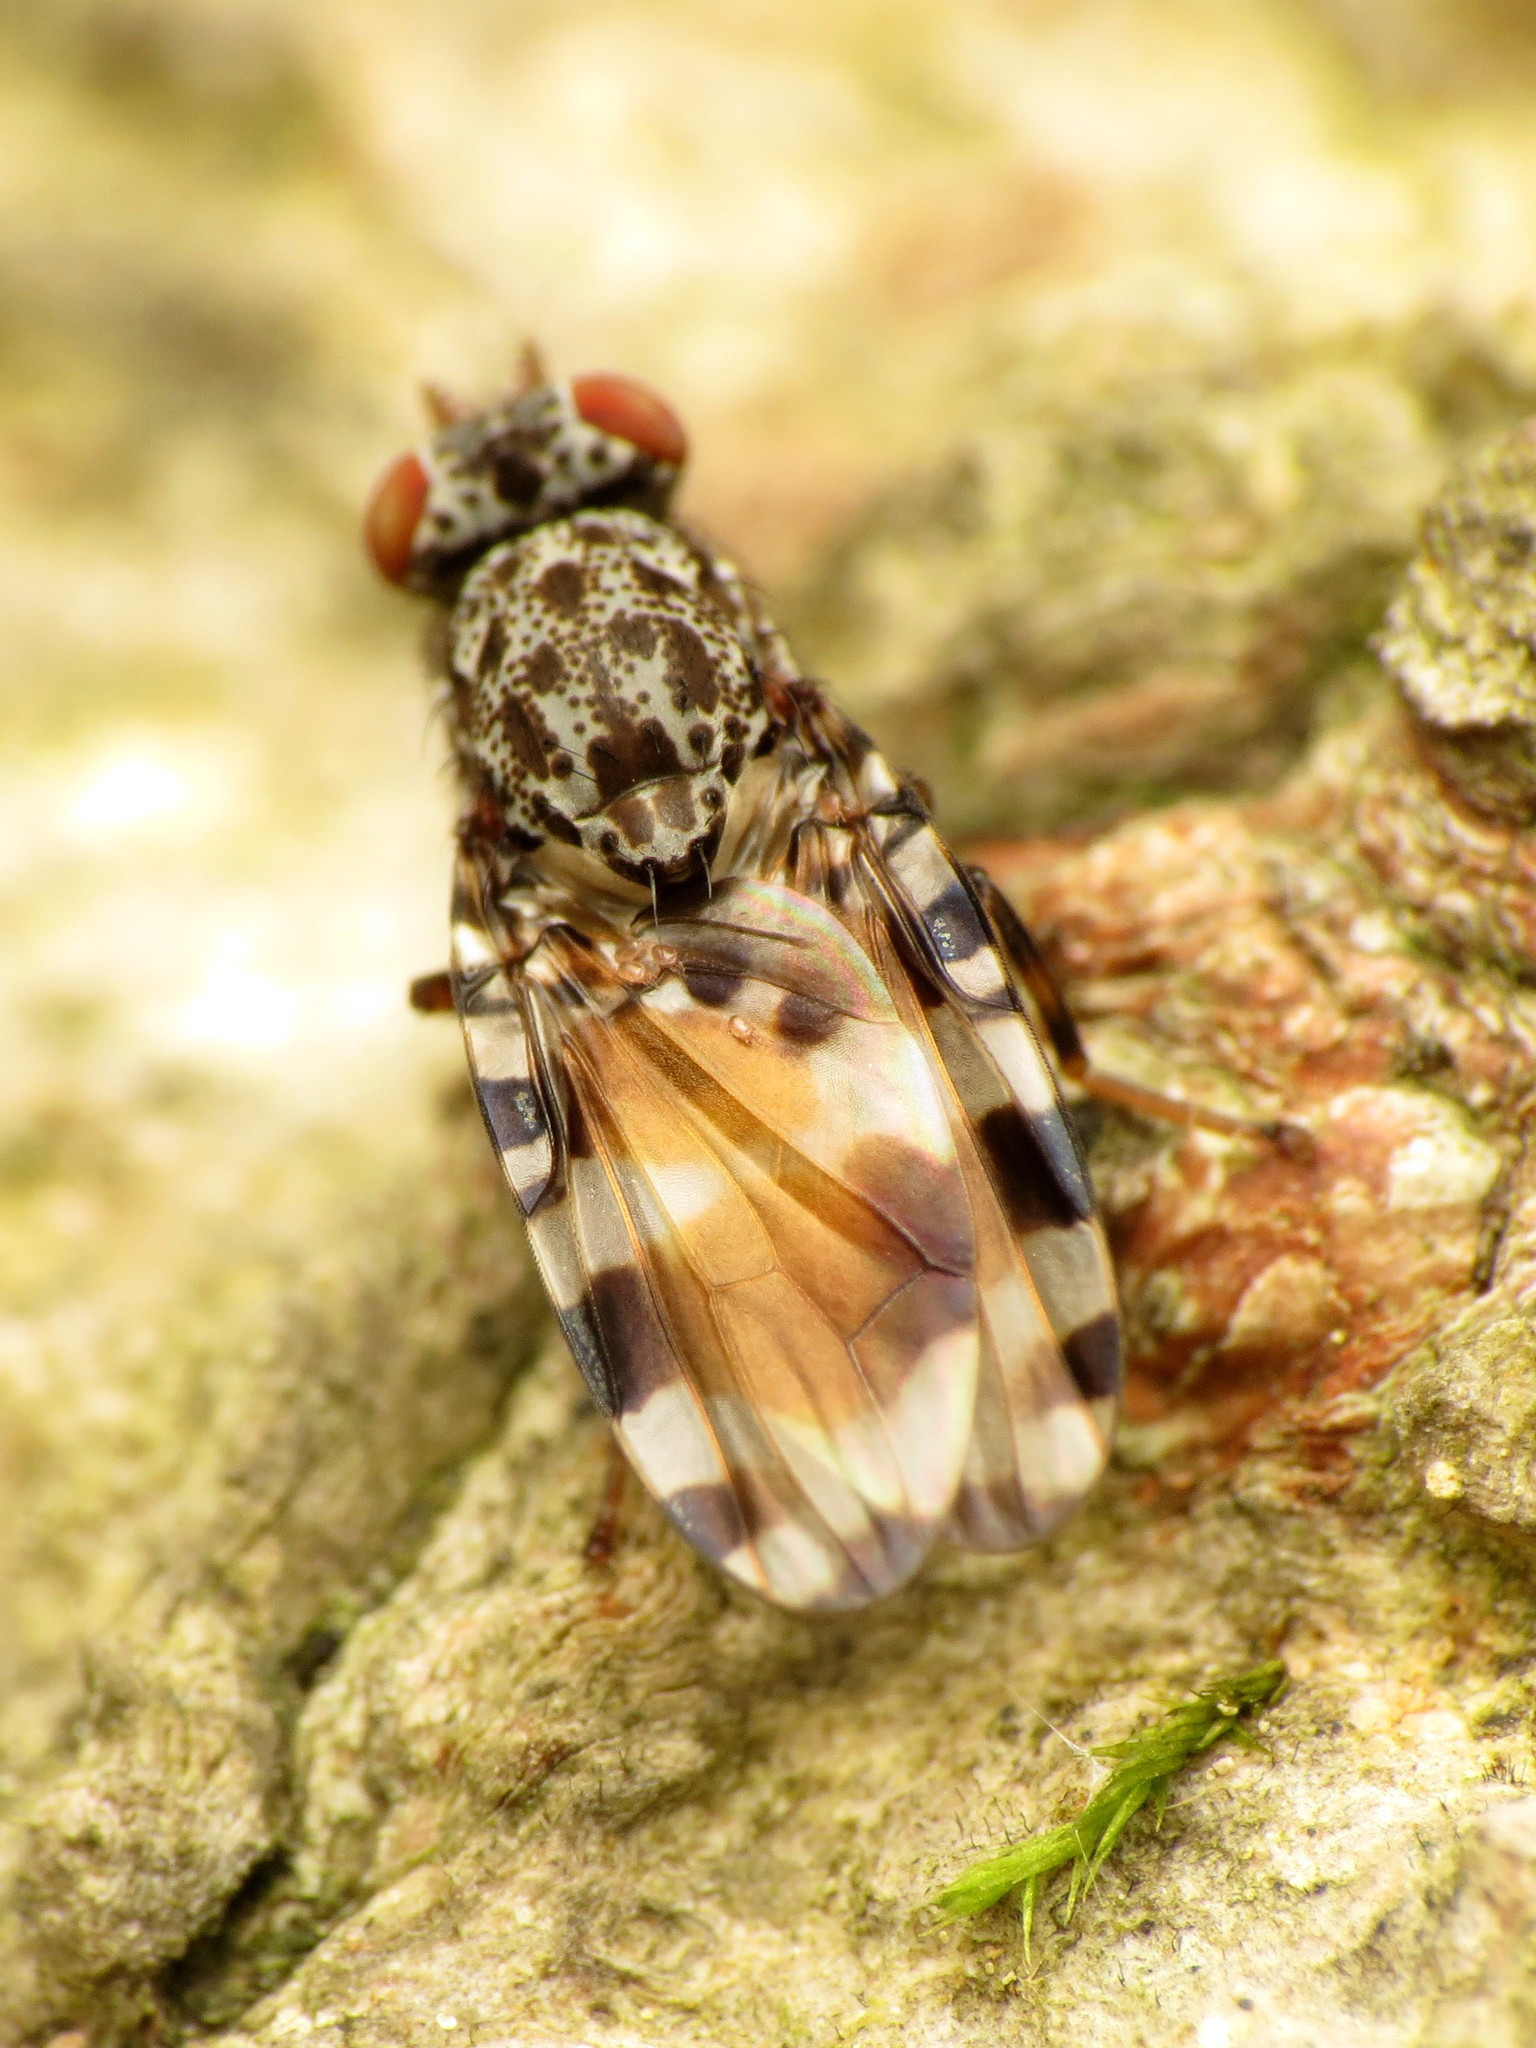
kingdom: Animalia
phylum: Arthropoda
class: Insecta
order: Diptera
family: Ulidiidae
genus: Pseudotephritis
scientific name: Pseudotephritis vau
